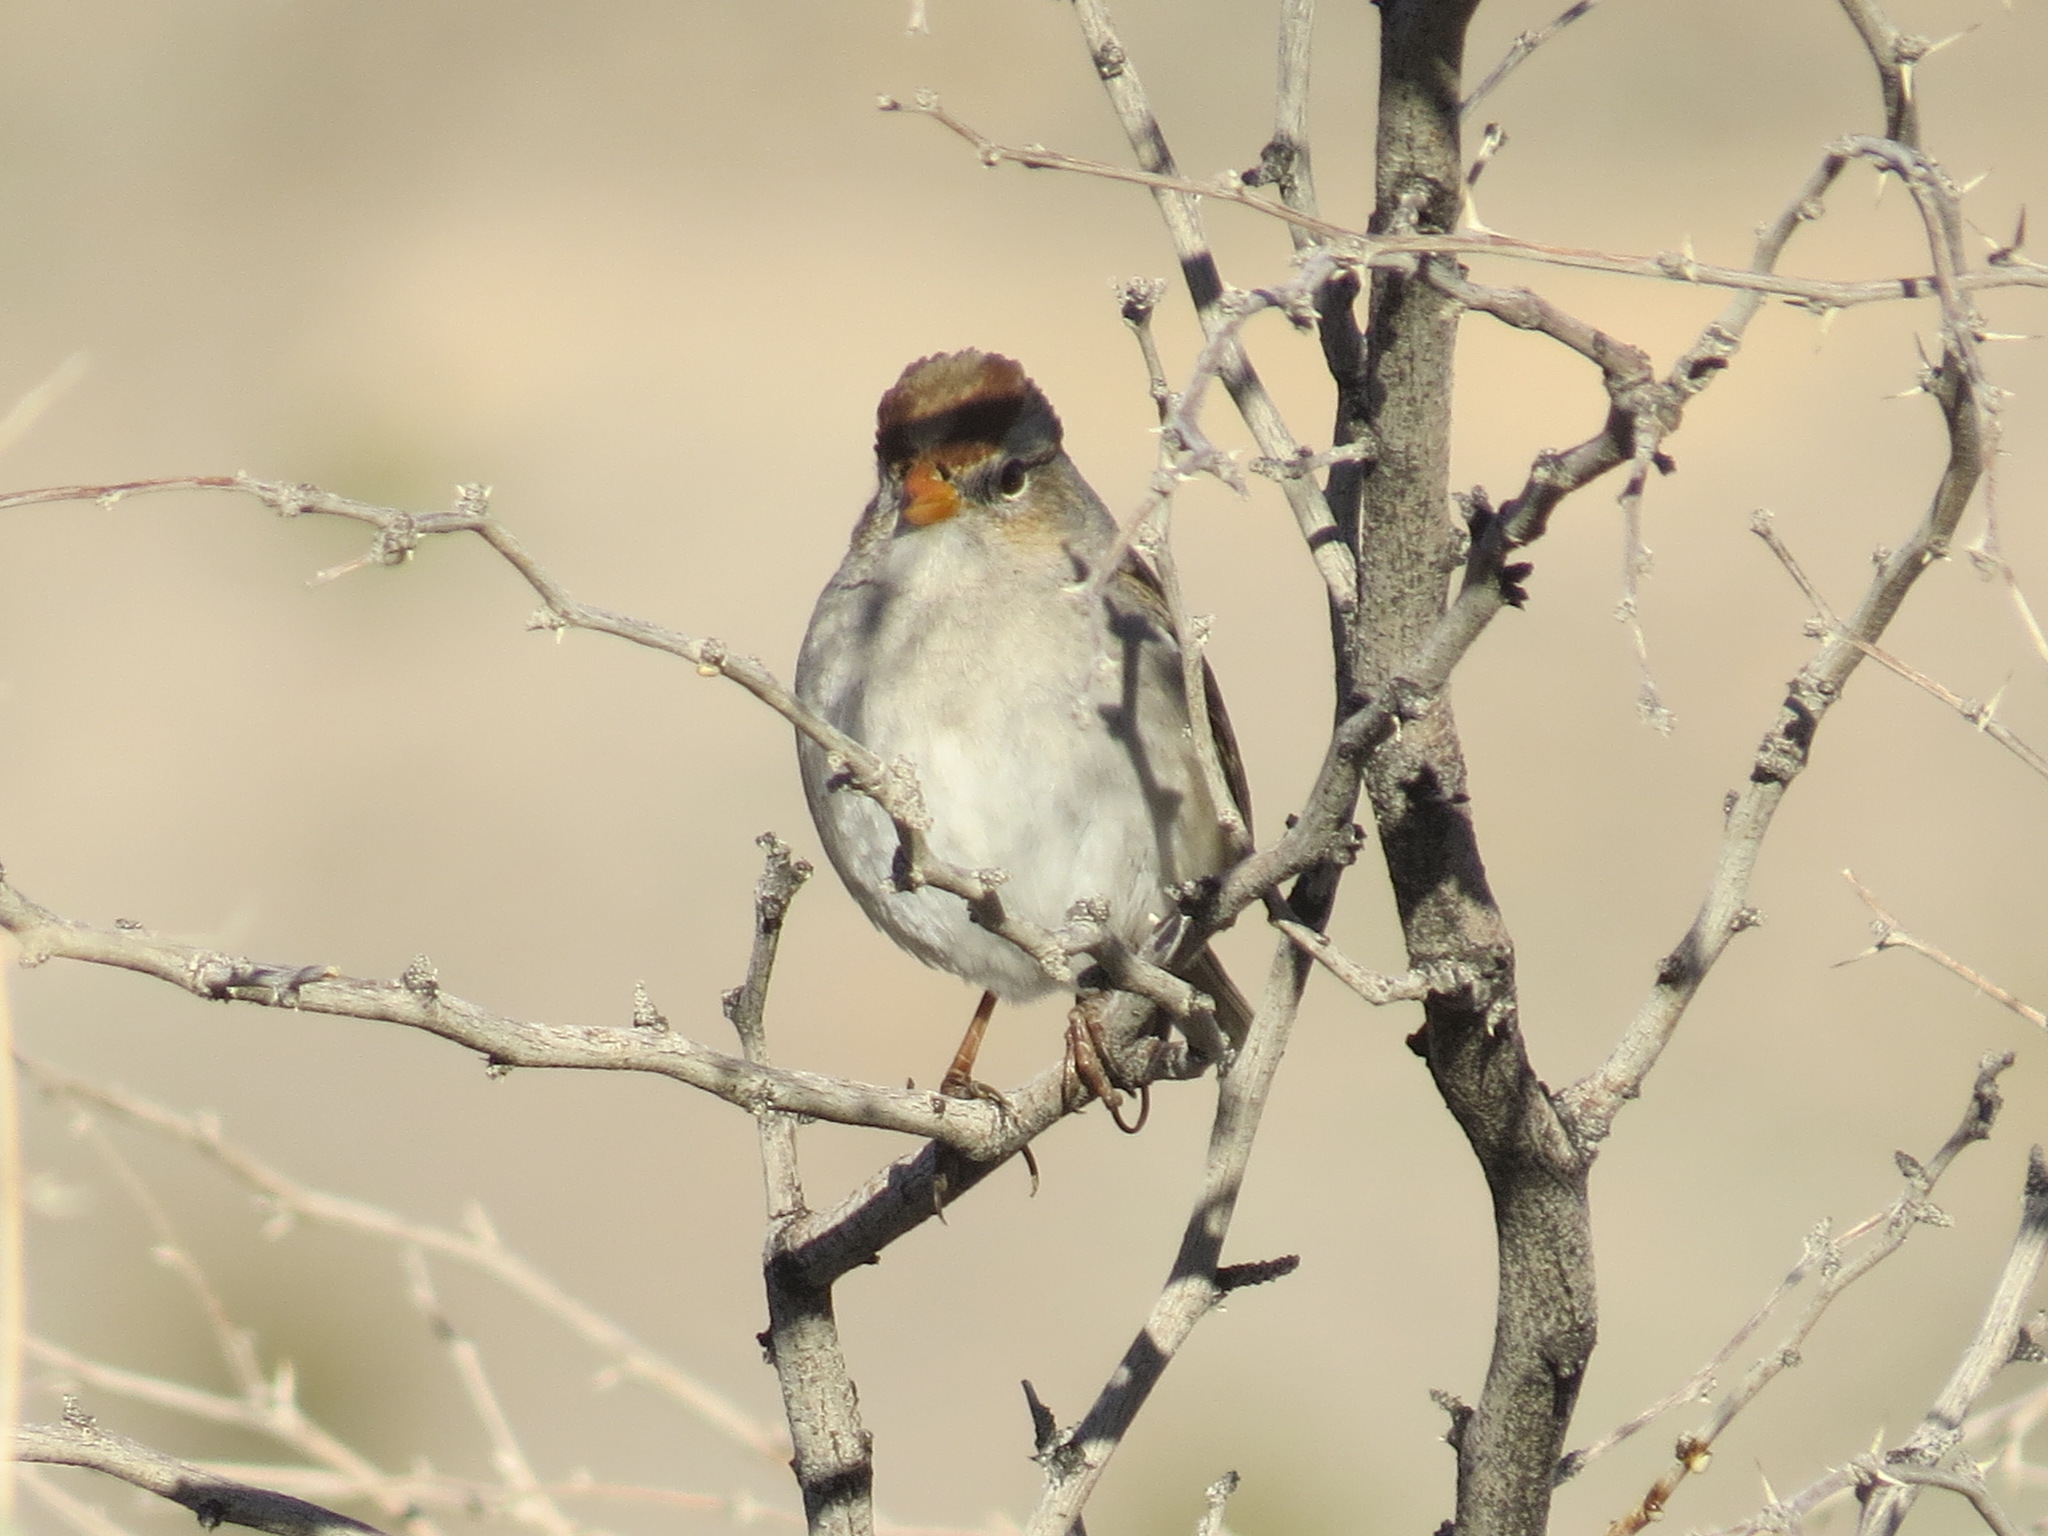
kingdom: Animalia
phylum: Chordata
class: Aves
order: Passeriformes
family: Passerellidae
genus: Zonotrichia
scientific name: Zonotrichia leucophrys
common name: White-crowned sparrow
